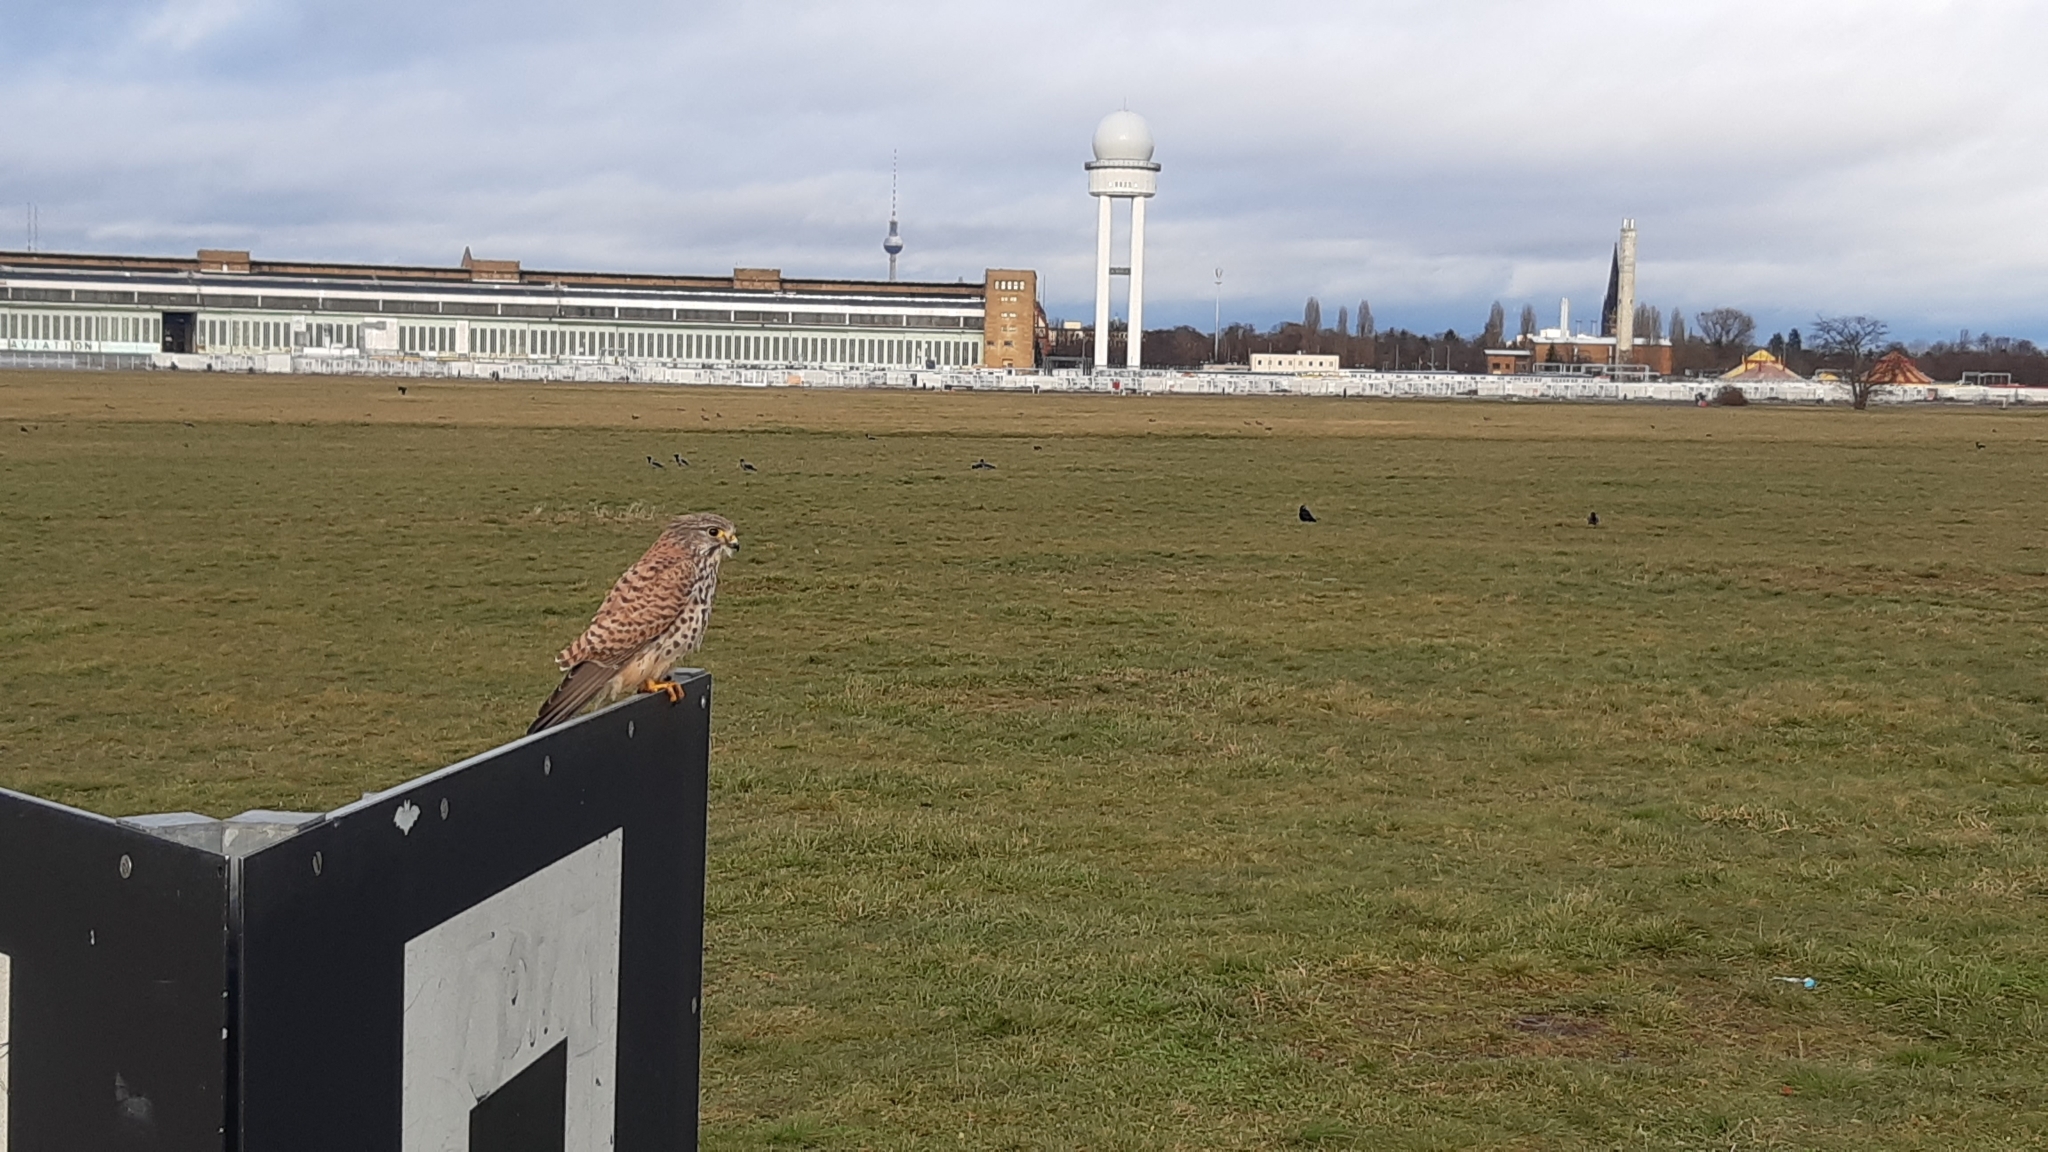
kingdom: Animalia
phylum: Chordata
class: Aves
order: Falconiformes
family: Falconidae
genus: Falco
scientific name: Falco tinnunculus
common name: Common kestrel
